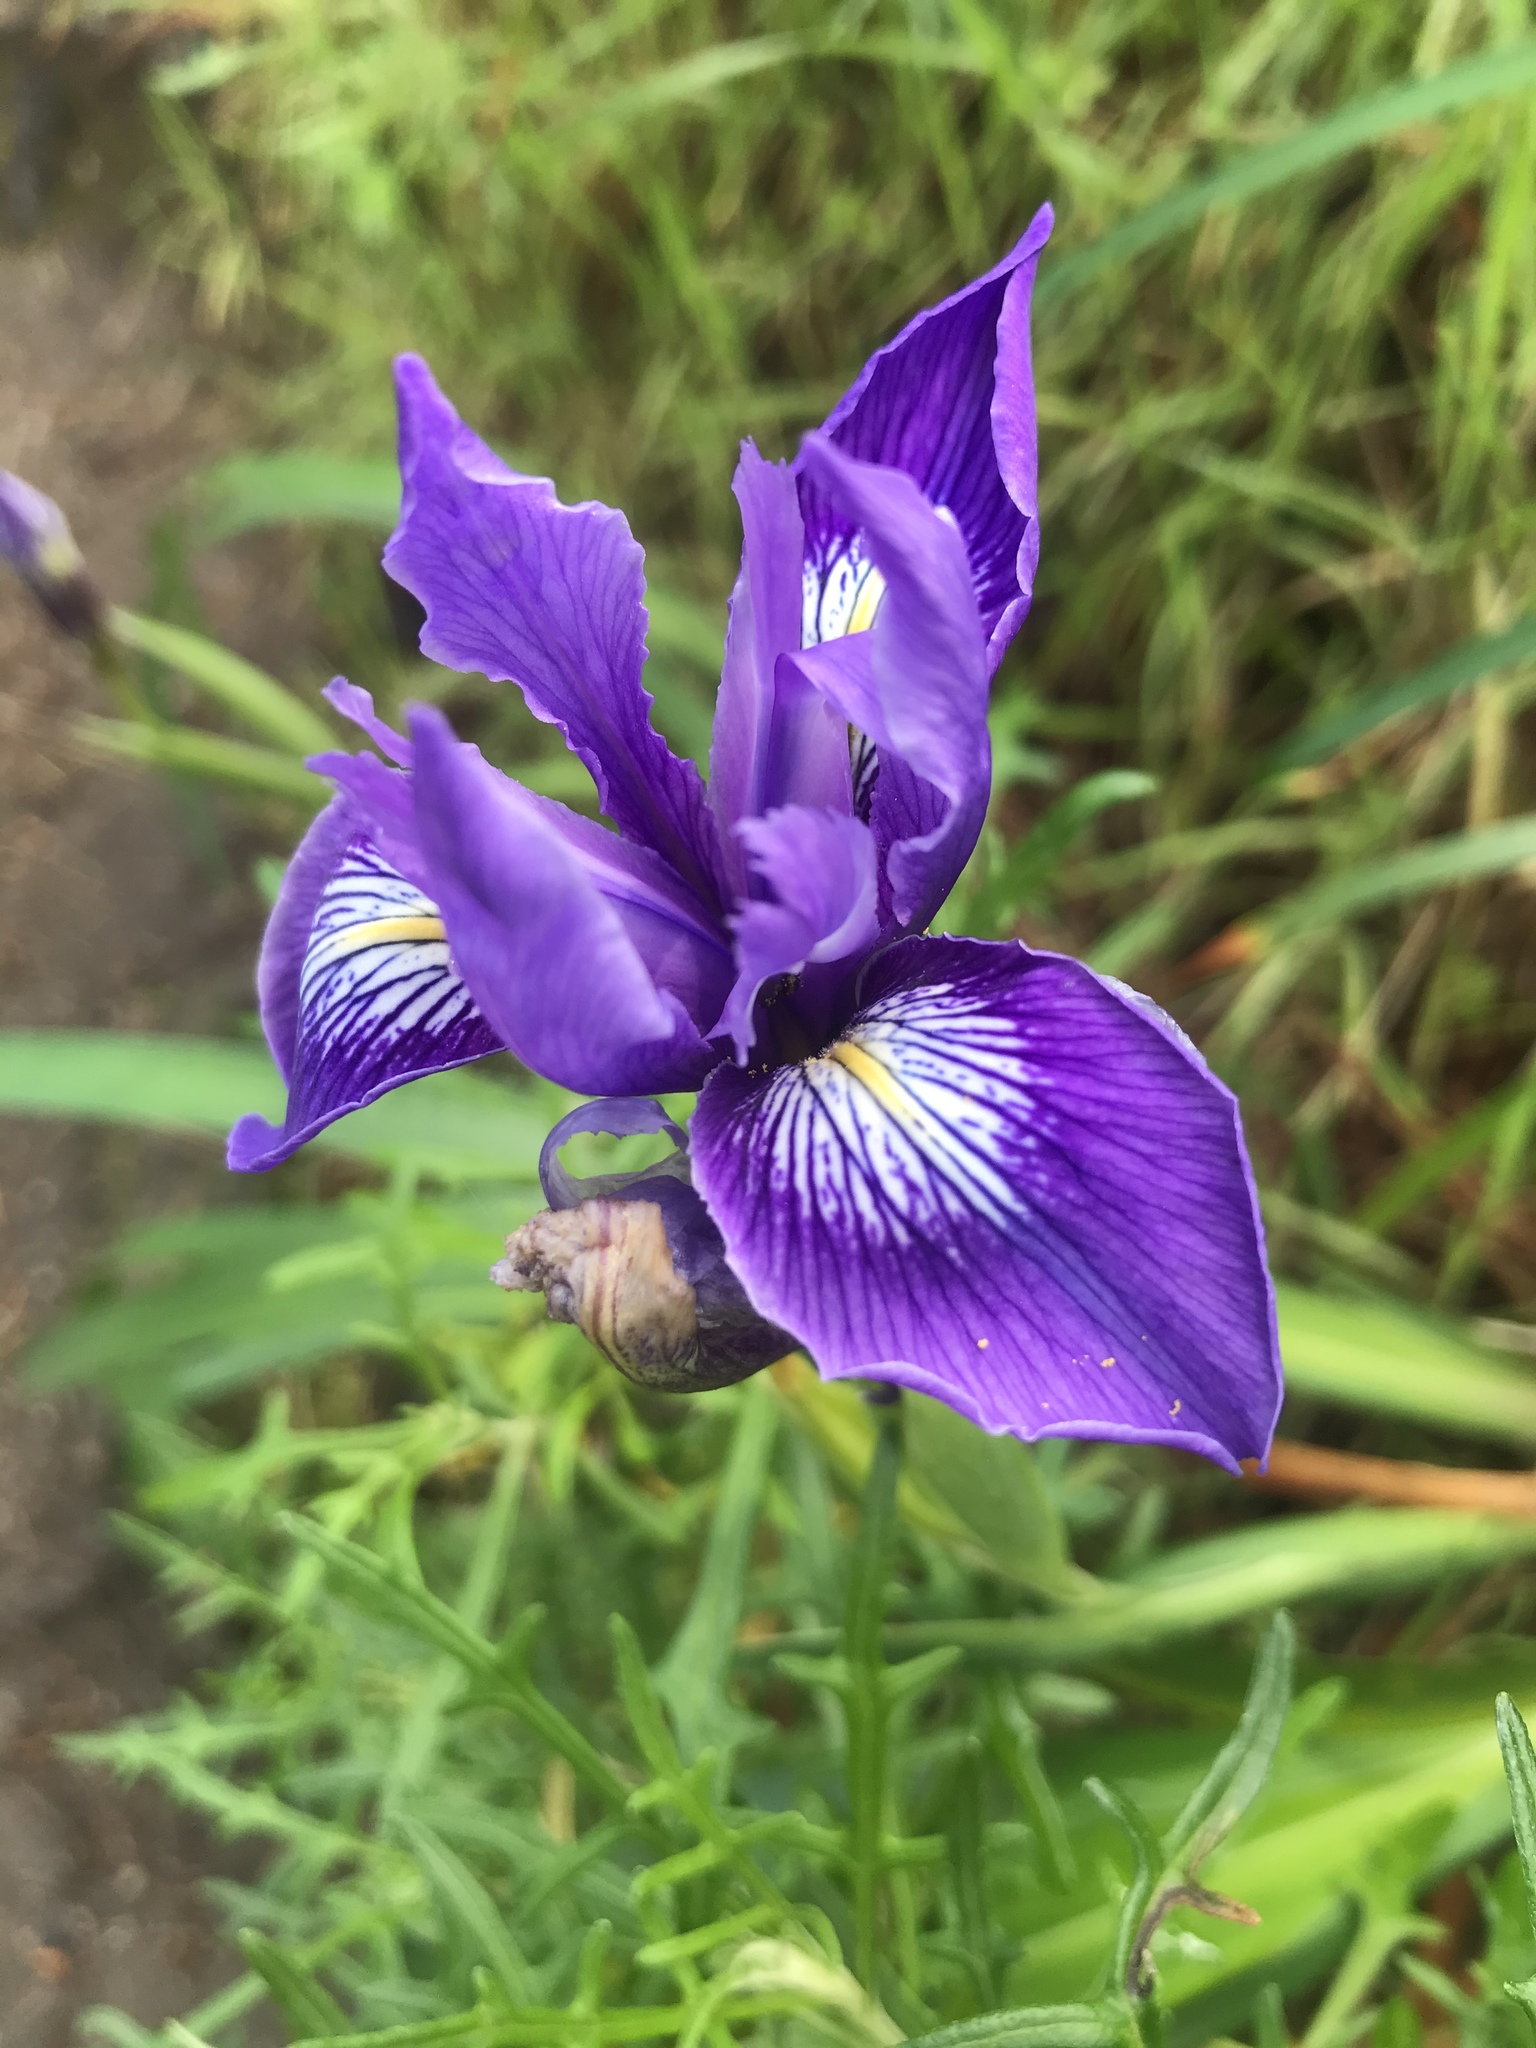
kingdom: Plantae
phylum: Tracheophyta
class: Liliopsida
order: Asparagales
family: Iridaceae
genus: Iris
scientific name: Iris douglasiana
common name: Marin iris
